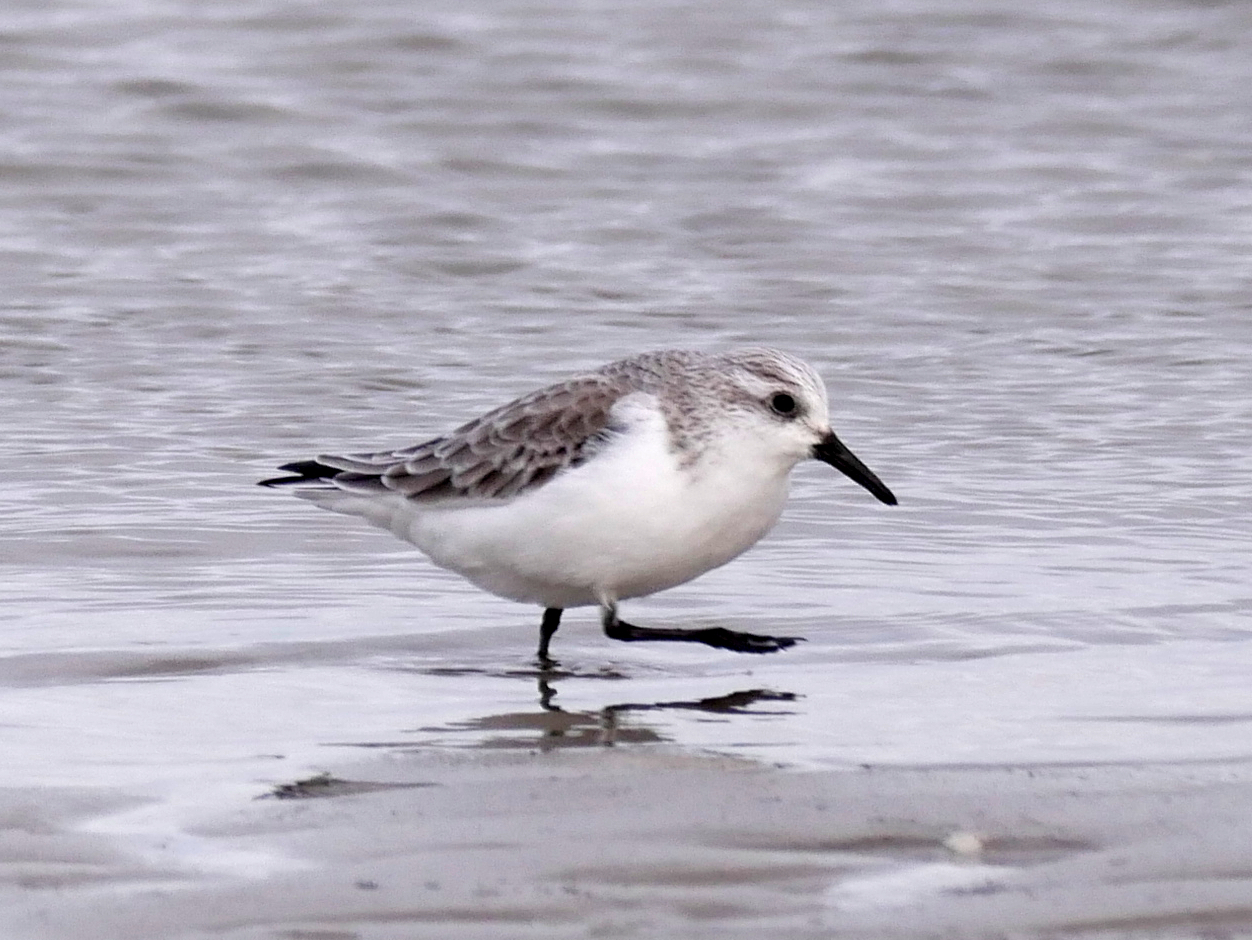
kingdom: Animalia
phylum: Chordata
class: Aves
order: Charadriiformes
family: Scolopacidae
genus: Calidris
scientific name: Calidris alba
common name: Sanderling
